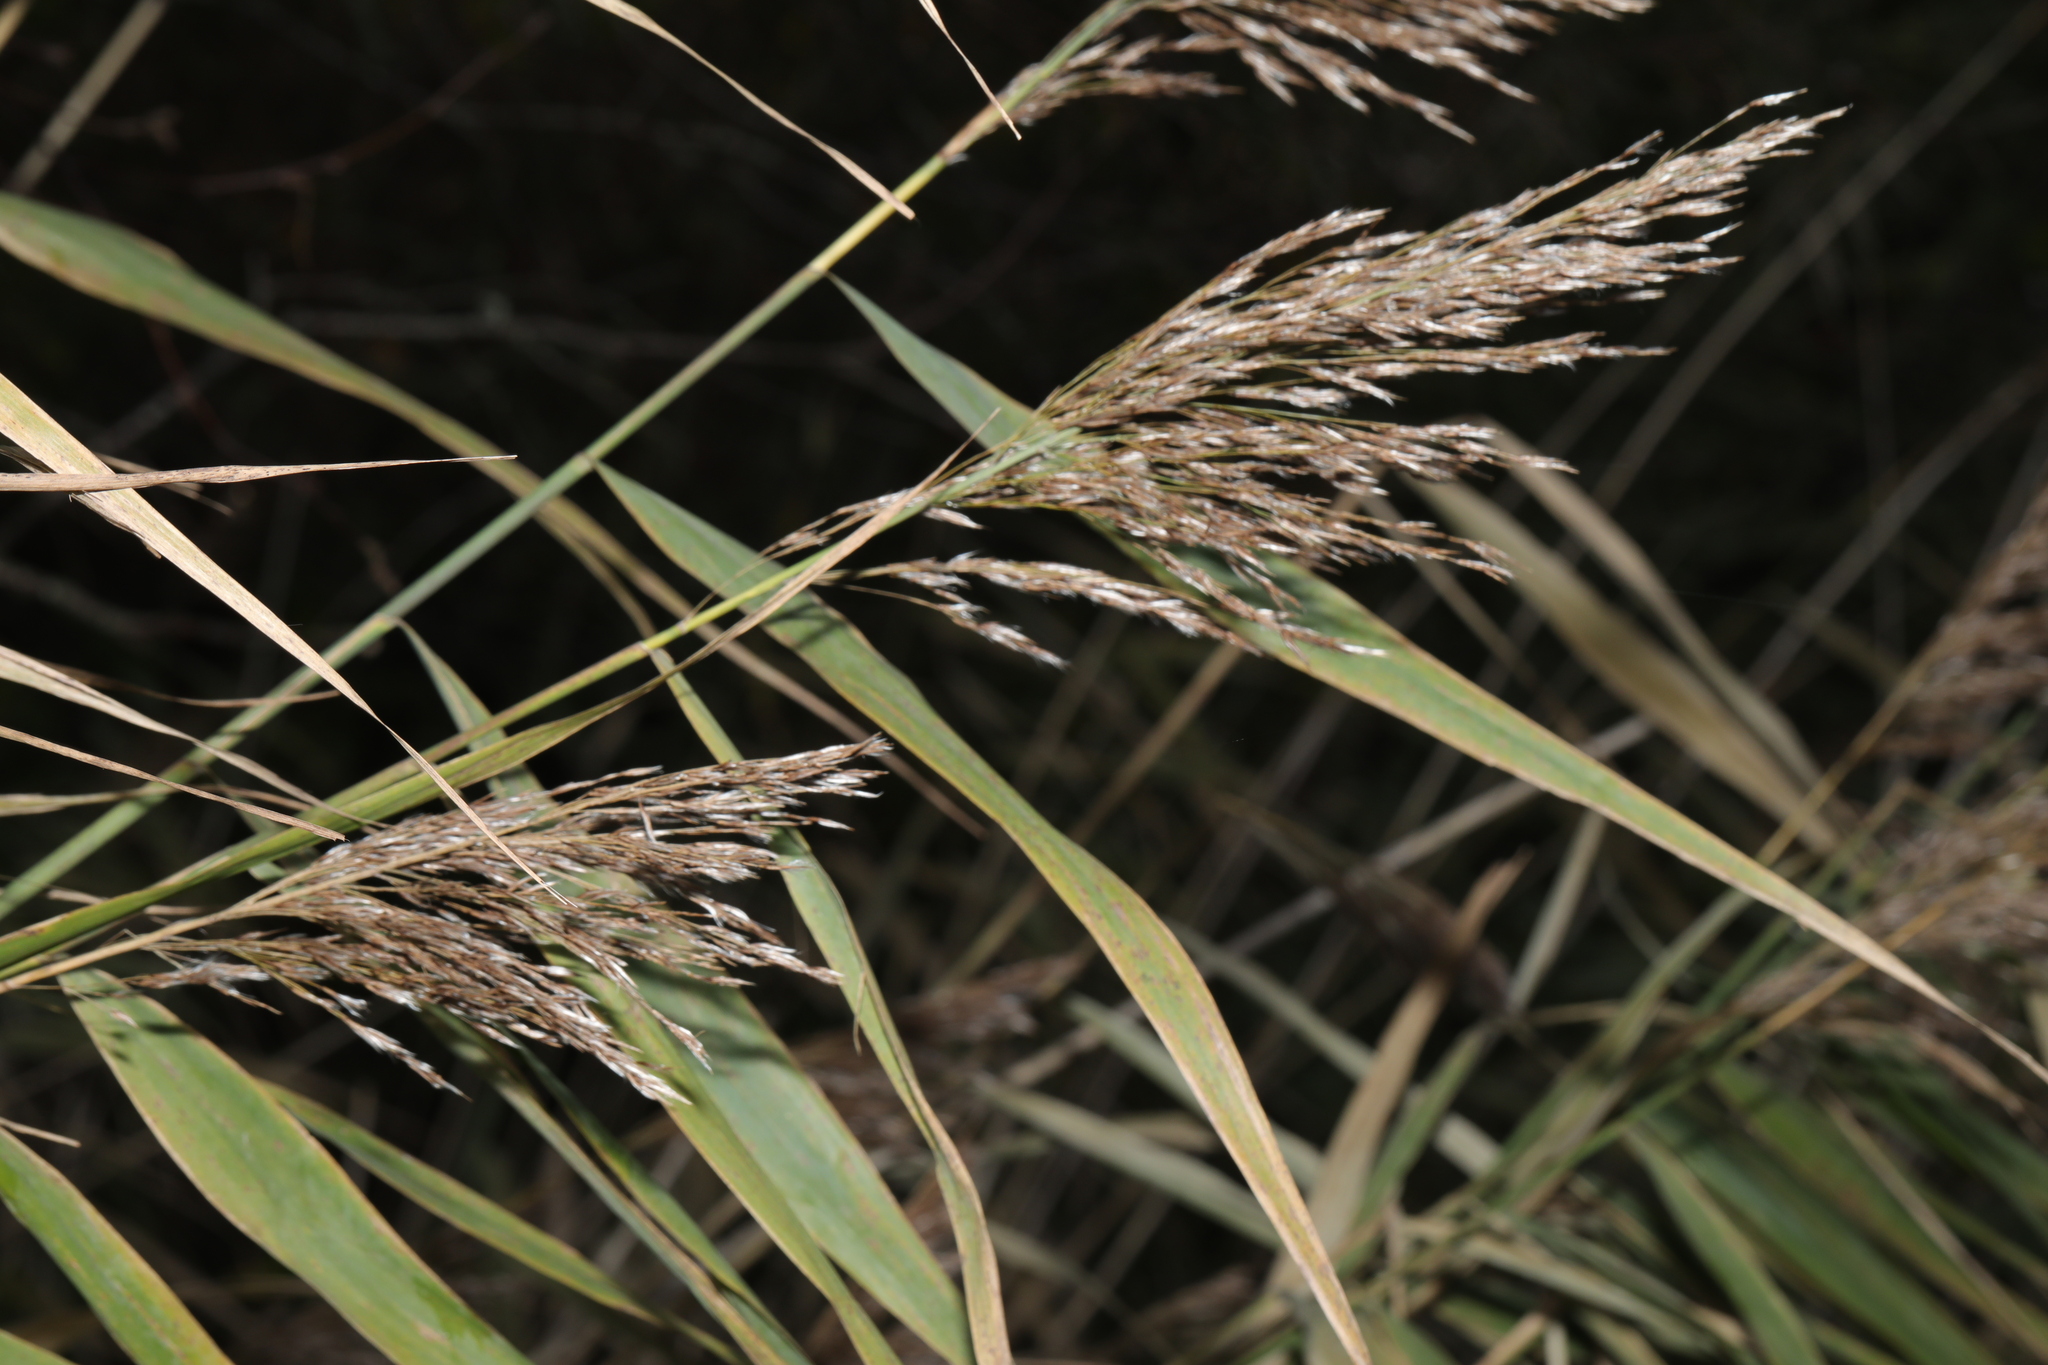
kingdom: Plantae
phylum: Tracheophyta
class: Liliopsida
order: Poales
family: Poaceae
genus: Phragmites
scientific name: Phragmites australis
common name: Common reed
